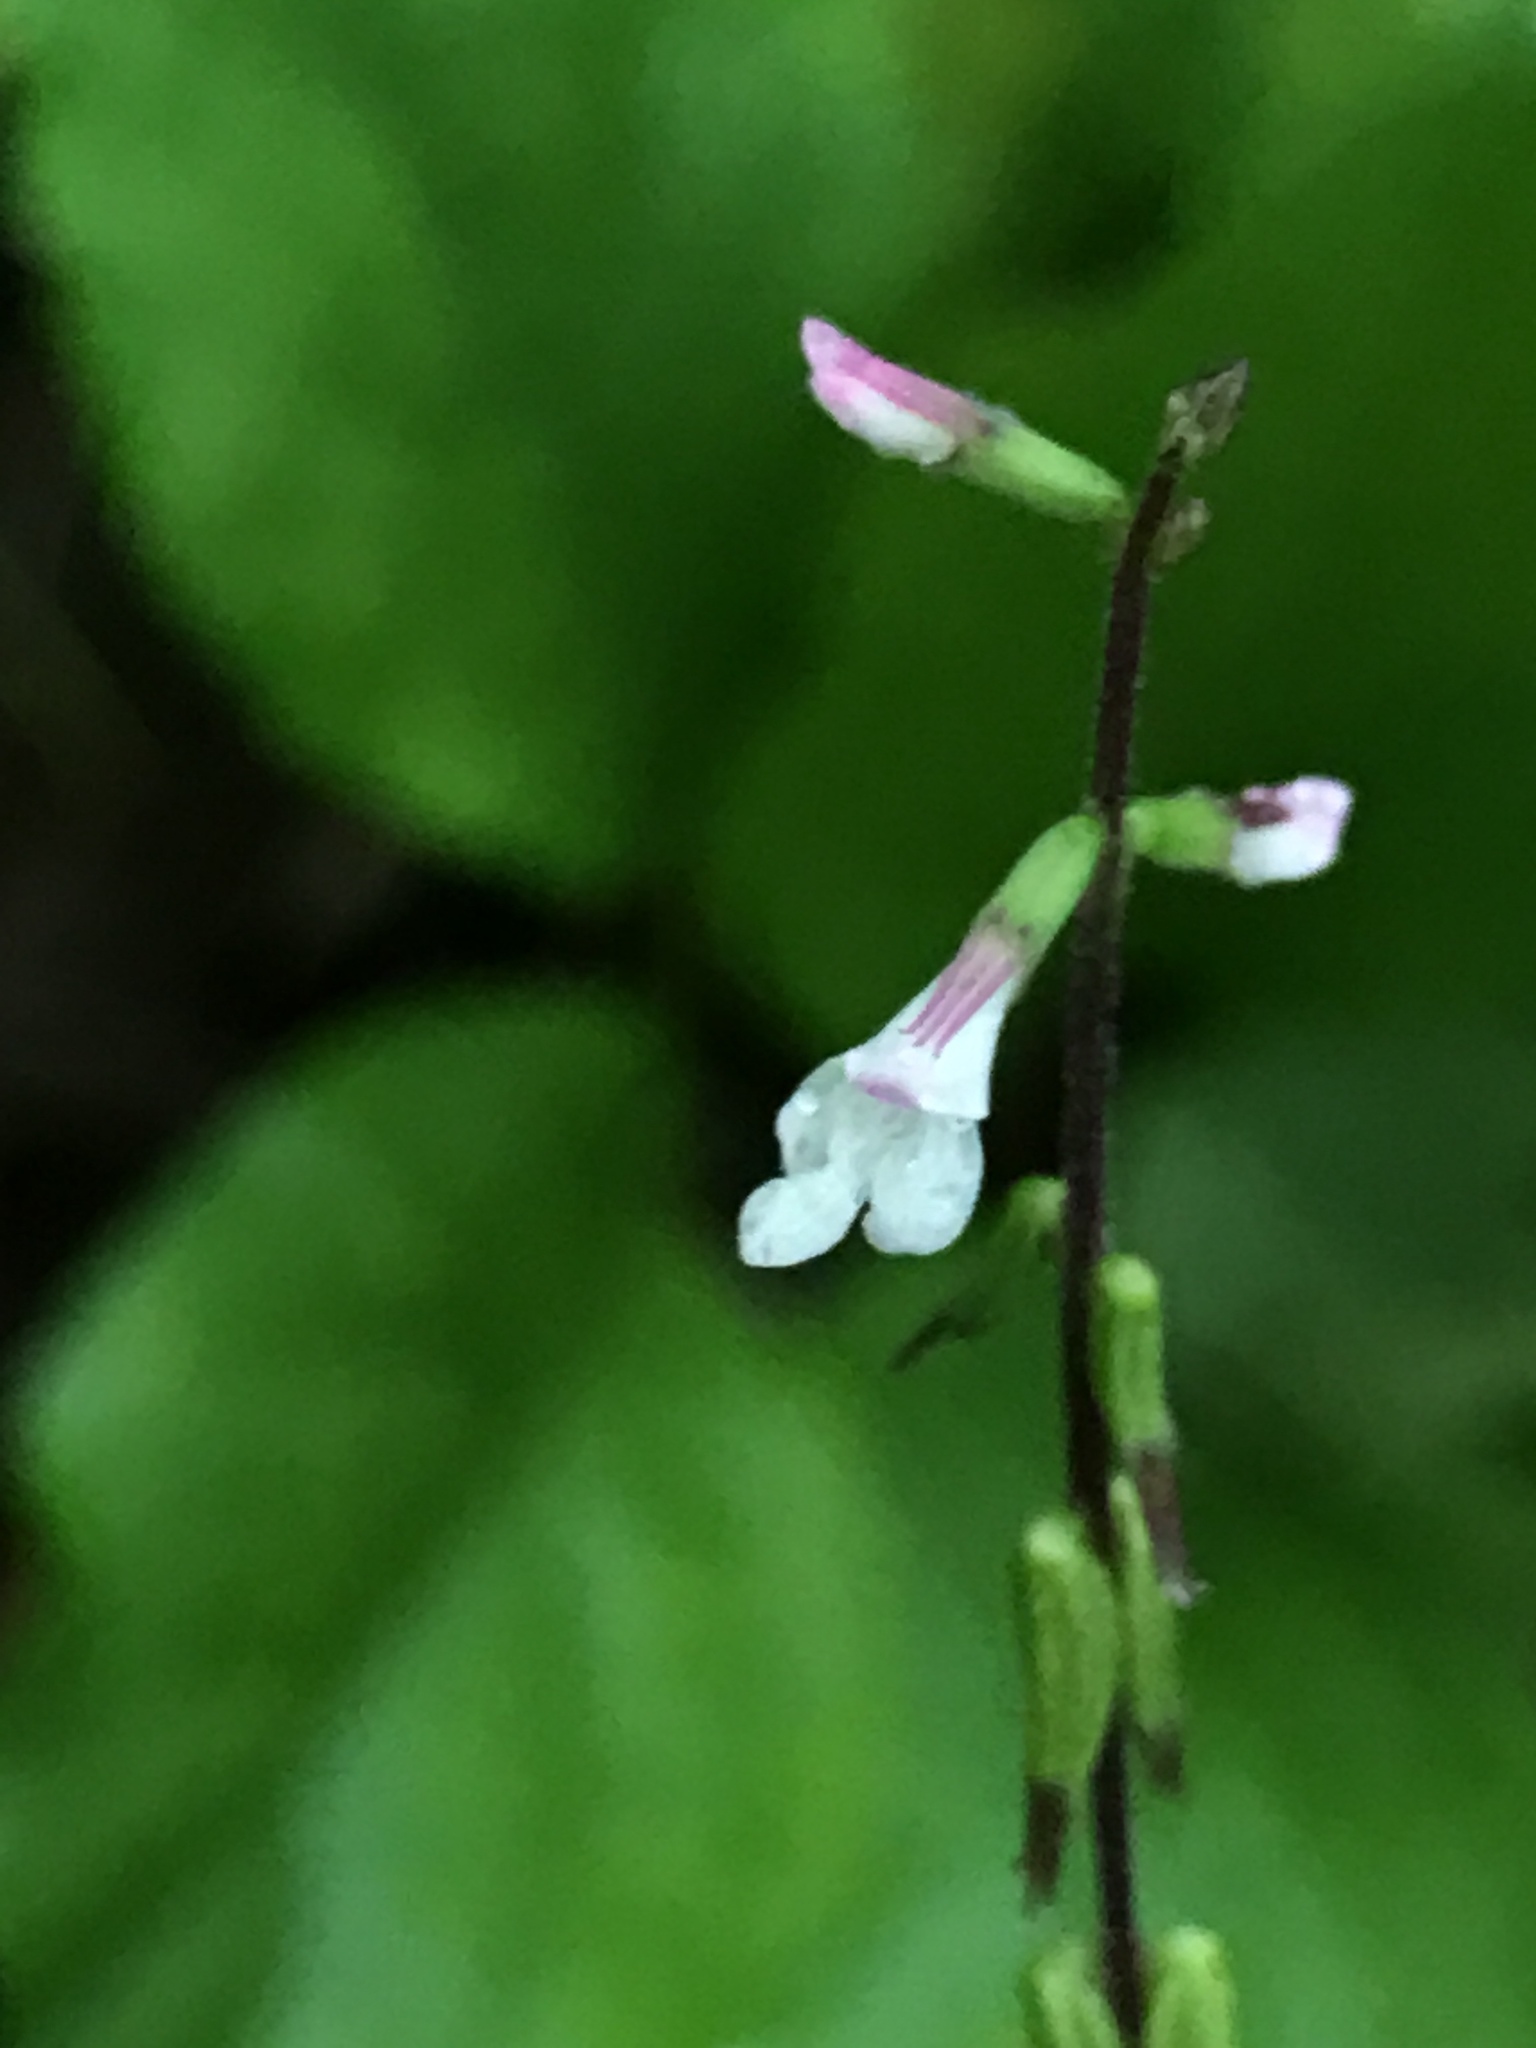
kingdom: Plantae
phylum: Tracheophyta
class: Magnoliopsida
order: Lamiales
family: Phrymaceae
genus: Phryma
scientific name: Phryma leptostachya
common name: American lopseed
